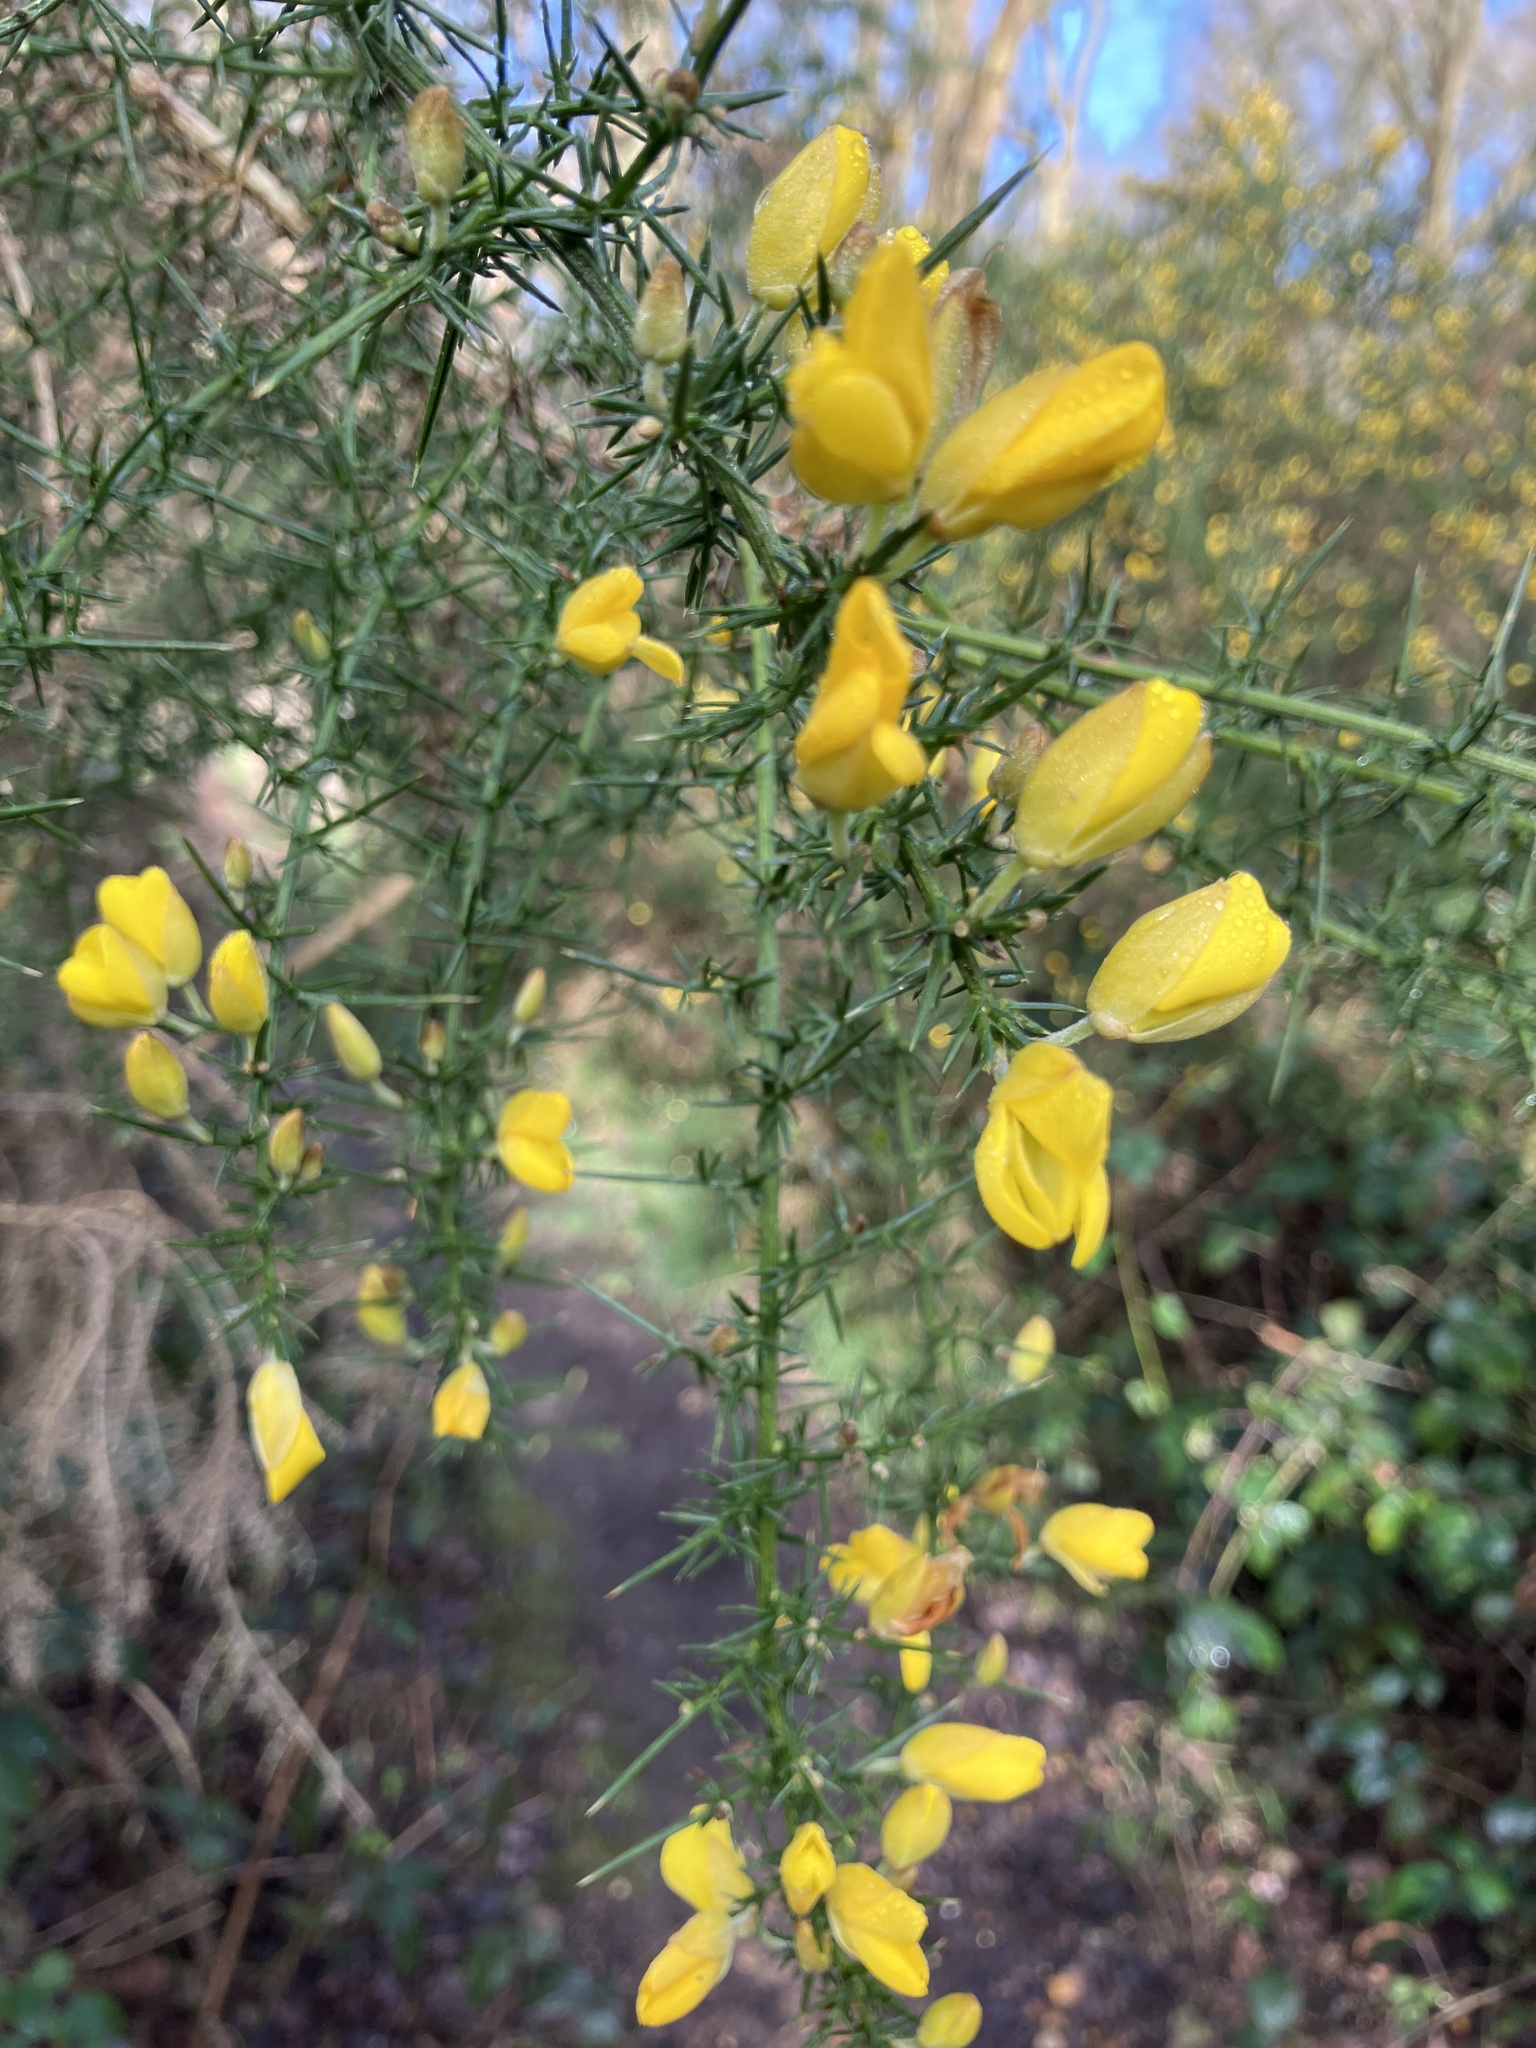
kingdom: Plantae
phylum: Tracheophyta
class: Magnoliopsida
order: Fabales
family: Fabaceae
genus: Ulex
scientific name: Ulex europaeus
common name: Common gorse
